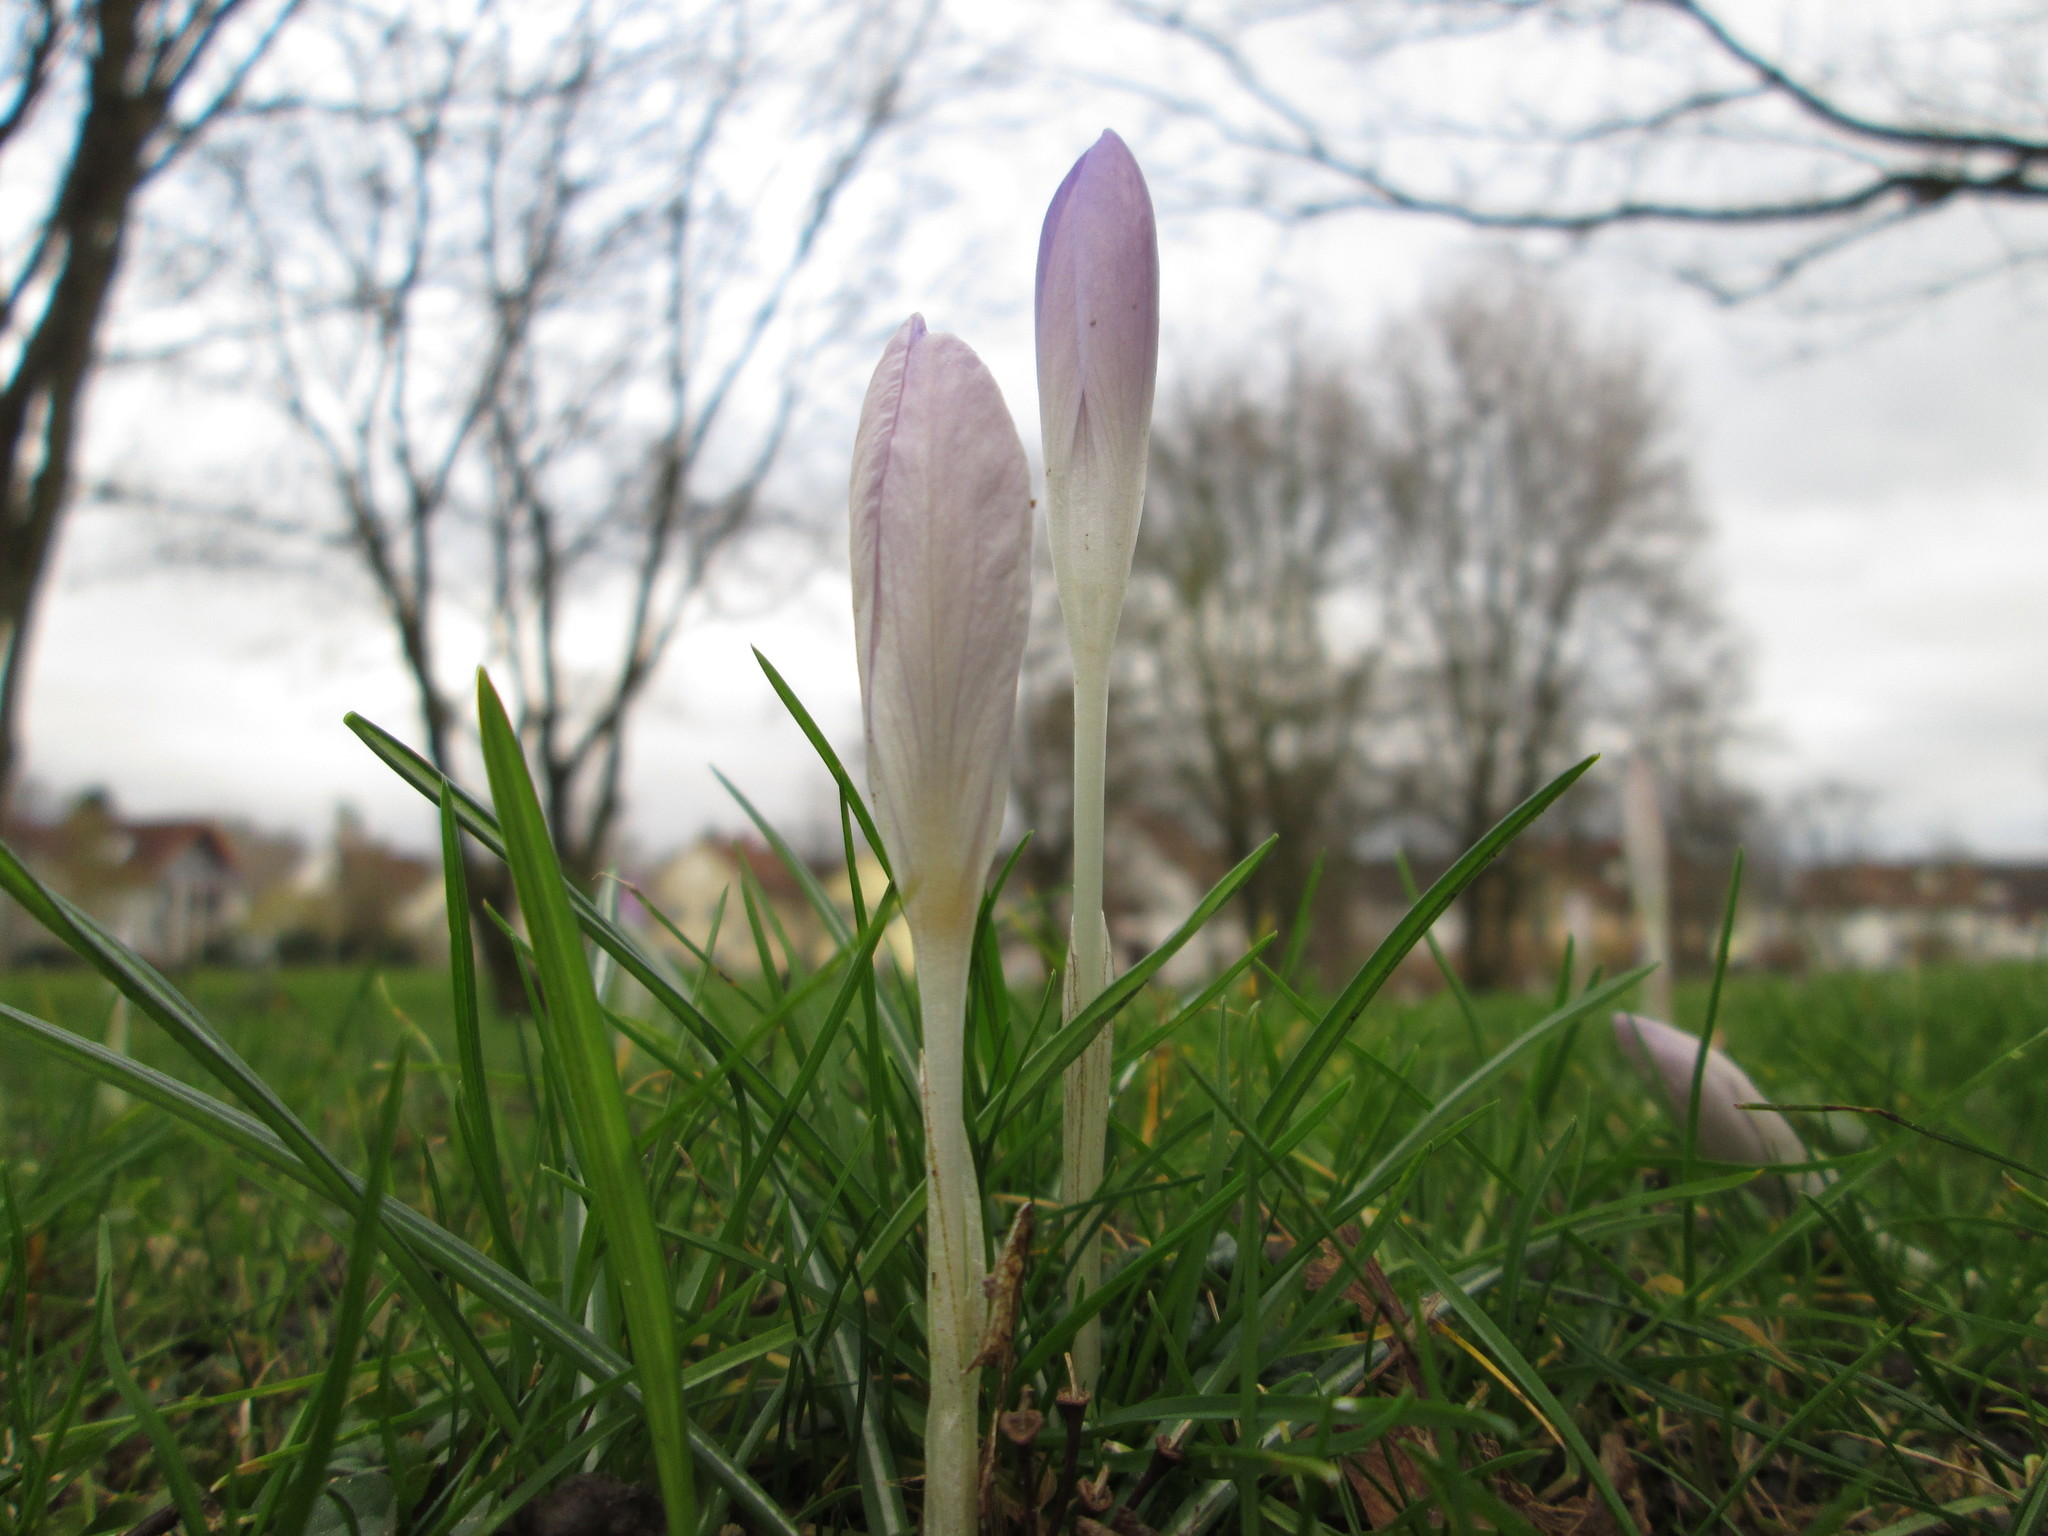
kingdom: Plantae
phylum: Tracheophyta
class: Liliopsida
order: Asparagales
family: Iridaceae
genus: Crocus
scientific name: Crocus tommasinianus
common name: Early crocus
